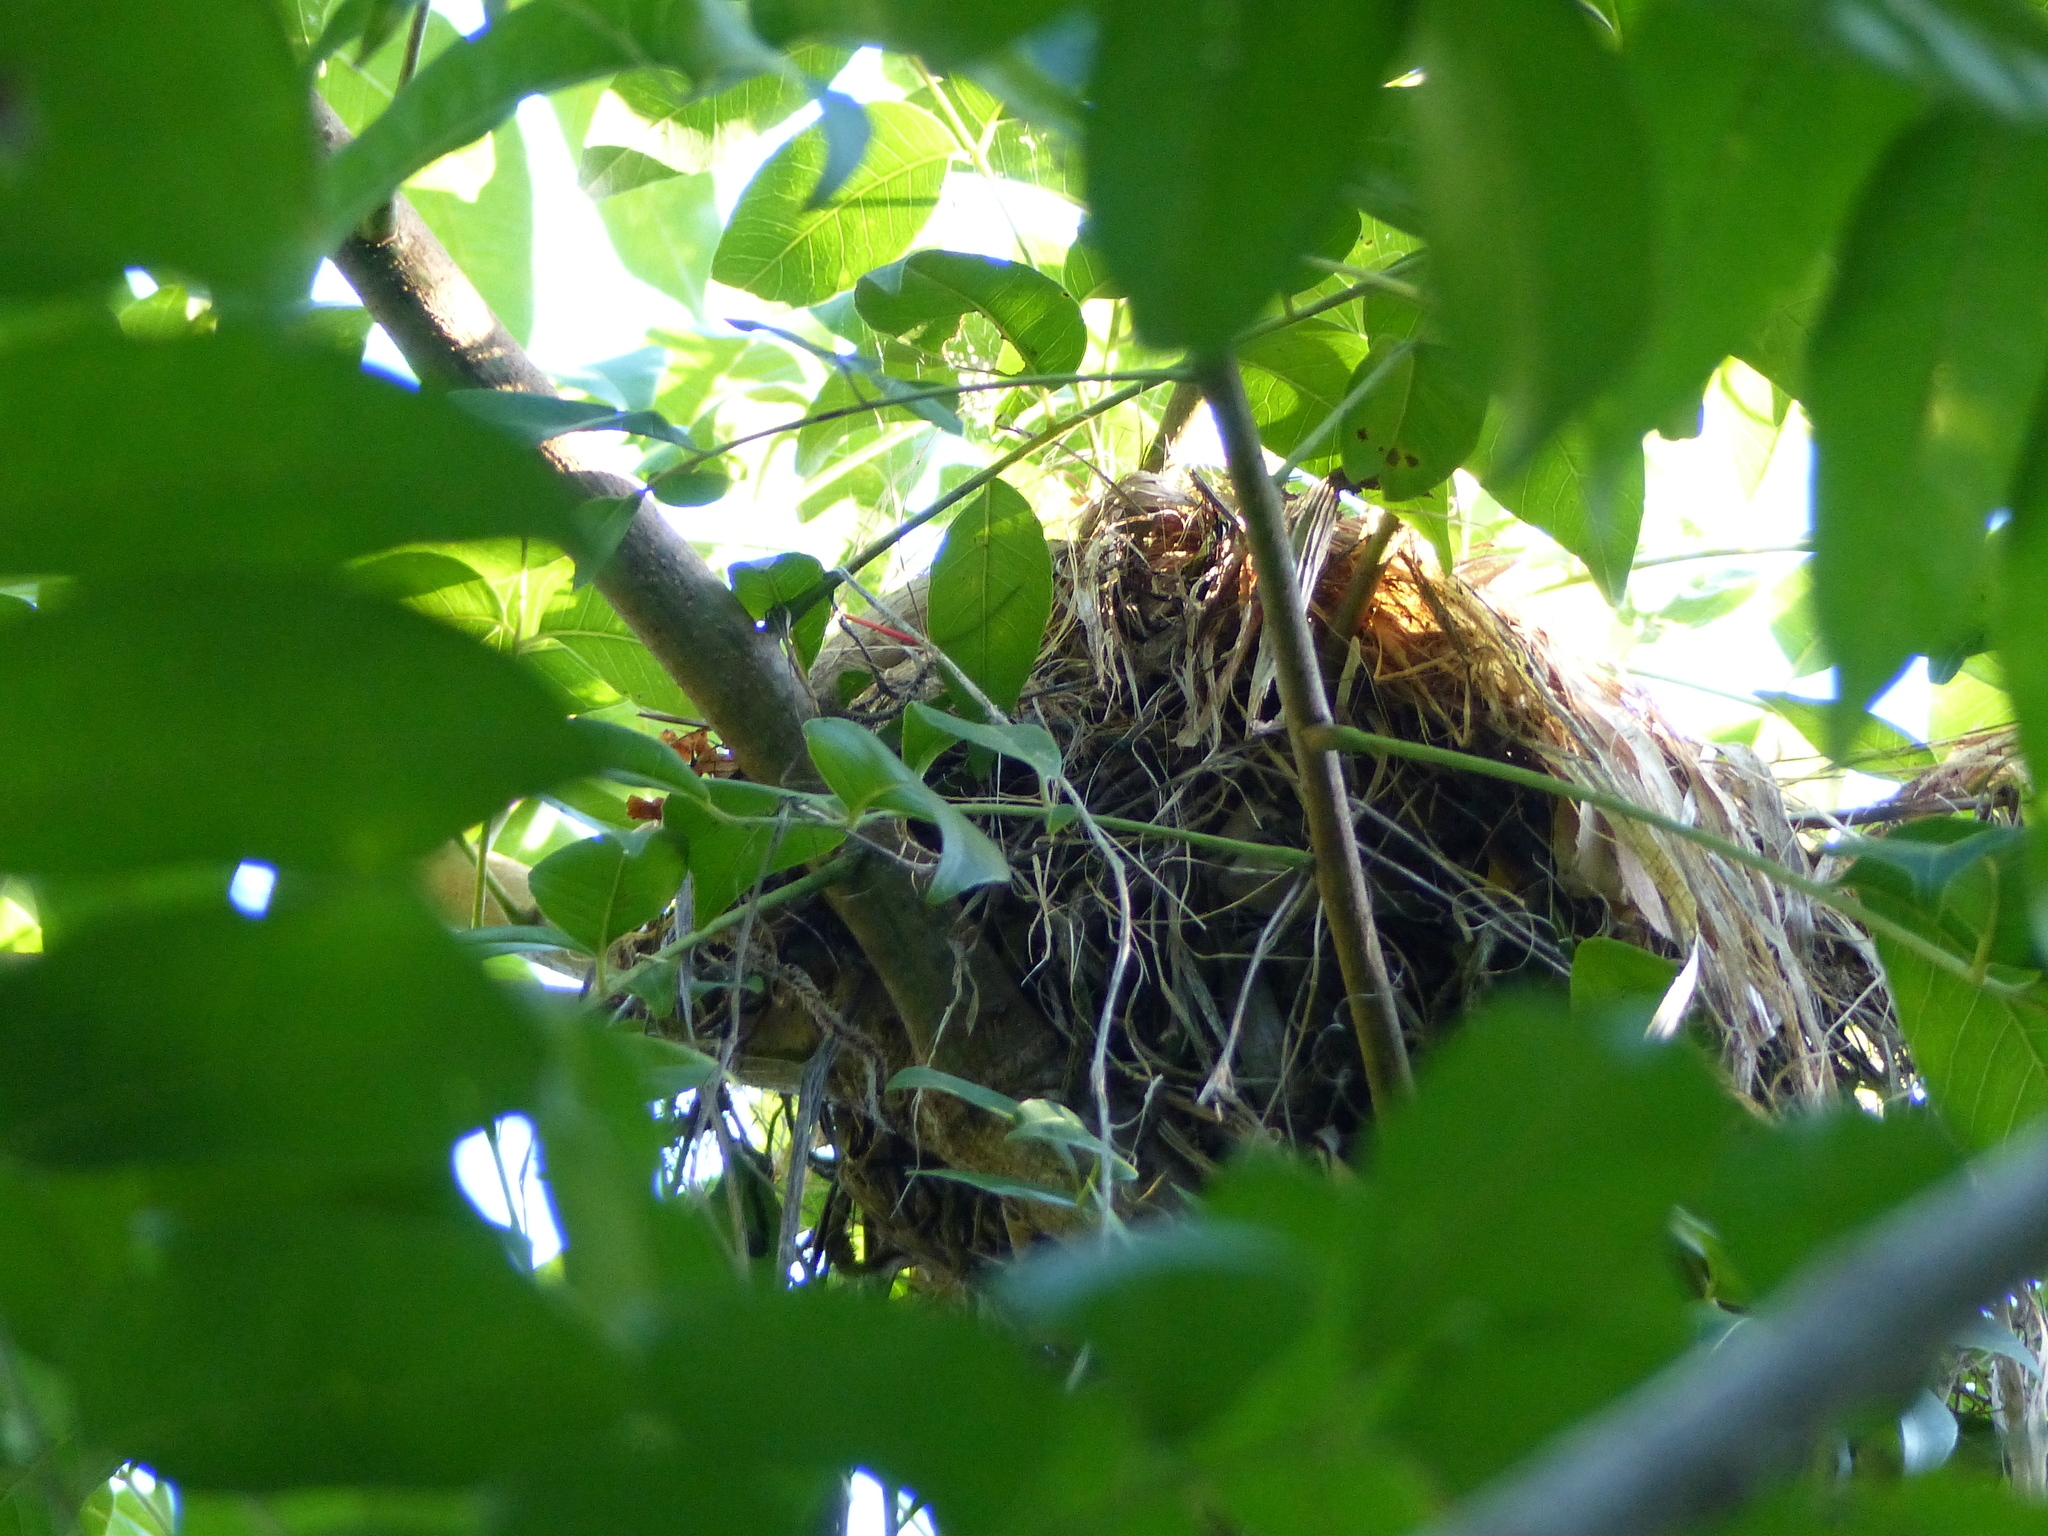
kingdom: Animalia
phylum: Chordata
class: Aves
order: Passeriformes
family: Cotingidae
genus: Pachyramphus
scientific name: Pachyramphus polychopterus
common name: White-winged becard
